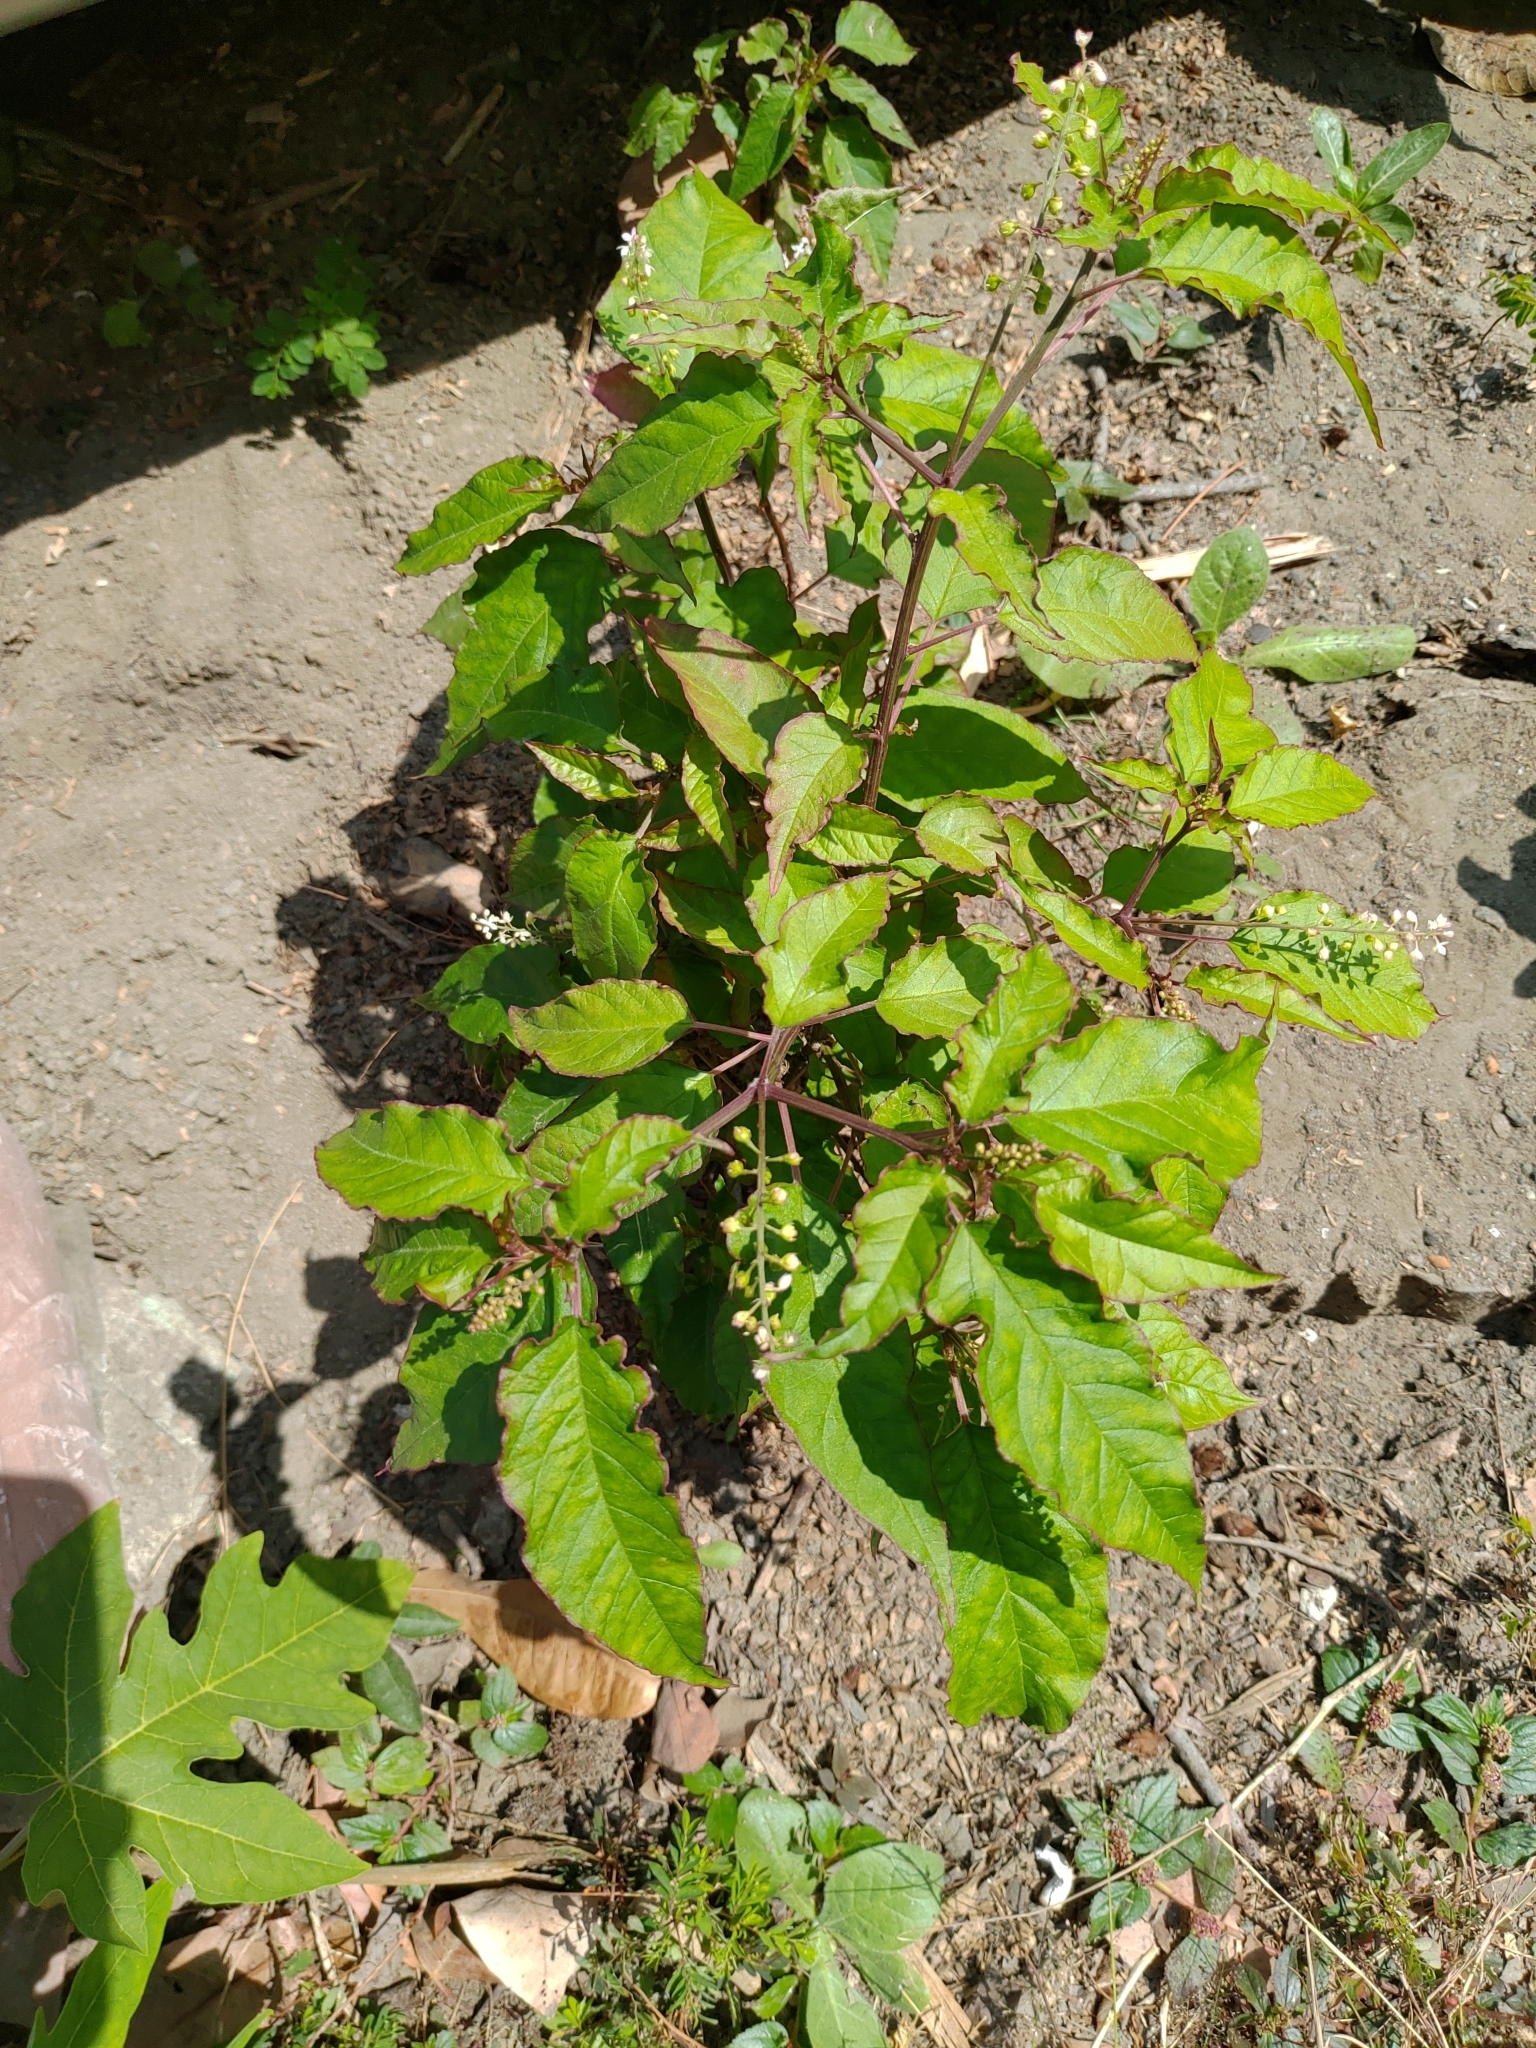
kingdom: Plantae
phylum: Tracheophyta
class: Magnoliopsida
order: Caryophyllales
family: Phytolaccaceae
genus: Rivina
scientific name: Rivina humilis
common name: Rougeplant
